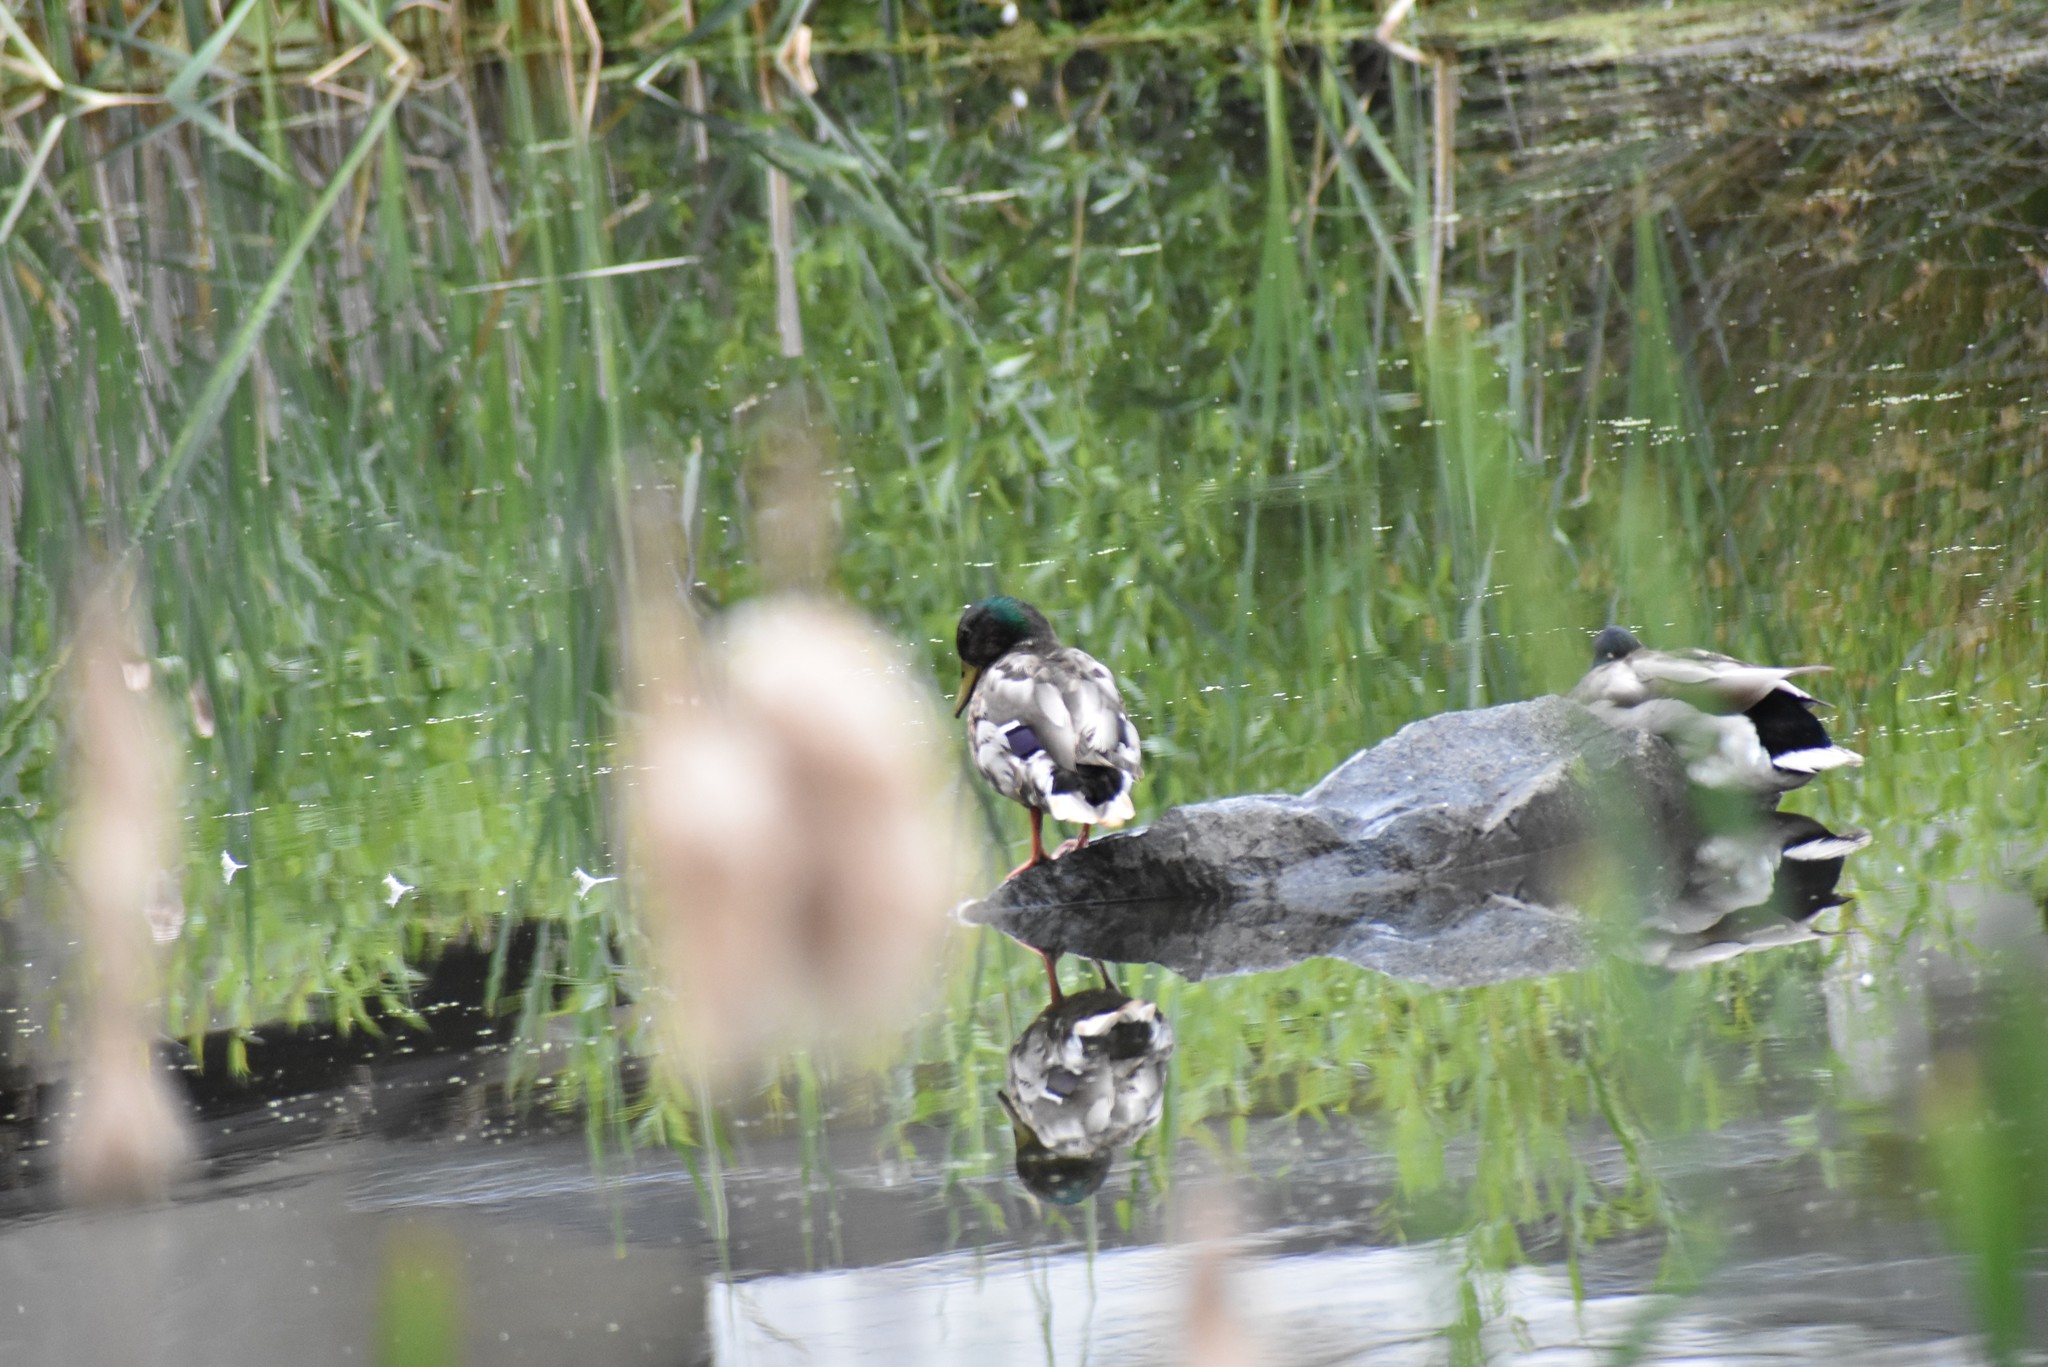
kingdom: Animalia
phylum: Chordata
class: Aves
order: Anseriformes
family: Anatidae
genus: Anas
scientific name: Anas platyrhynchos
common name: Mallard
